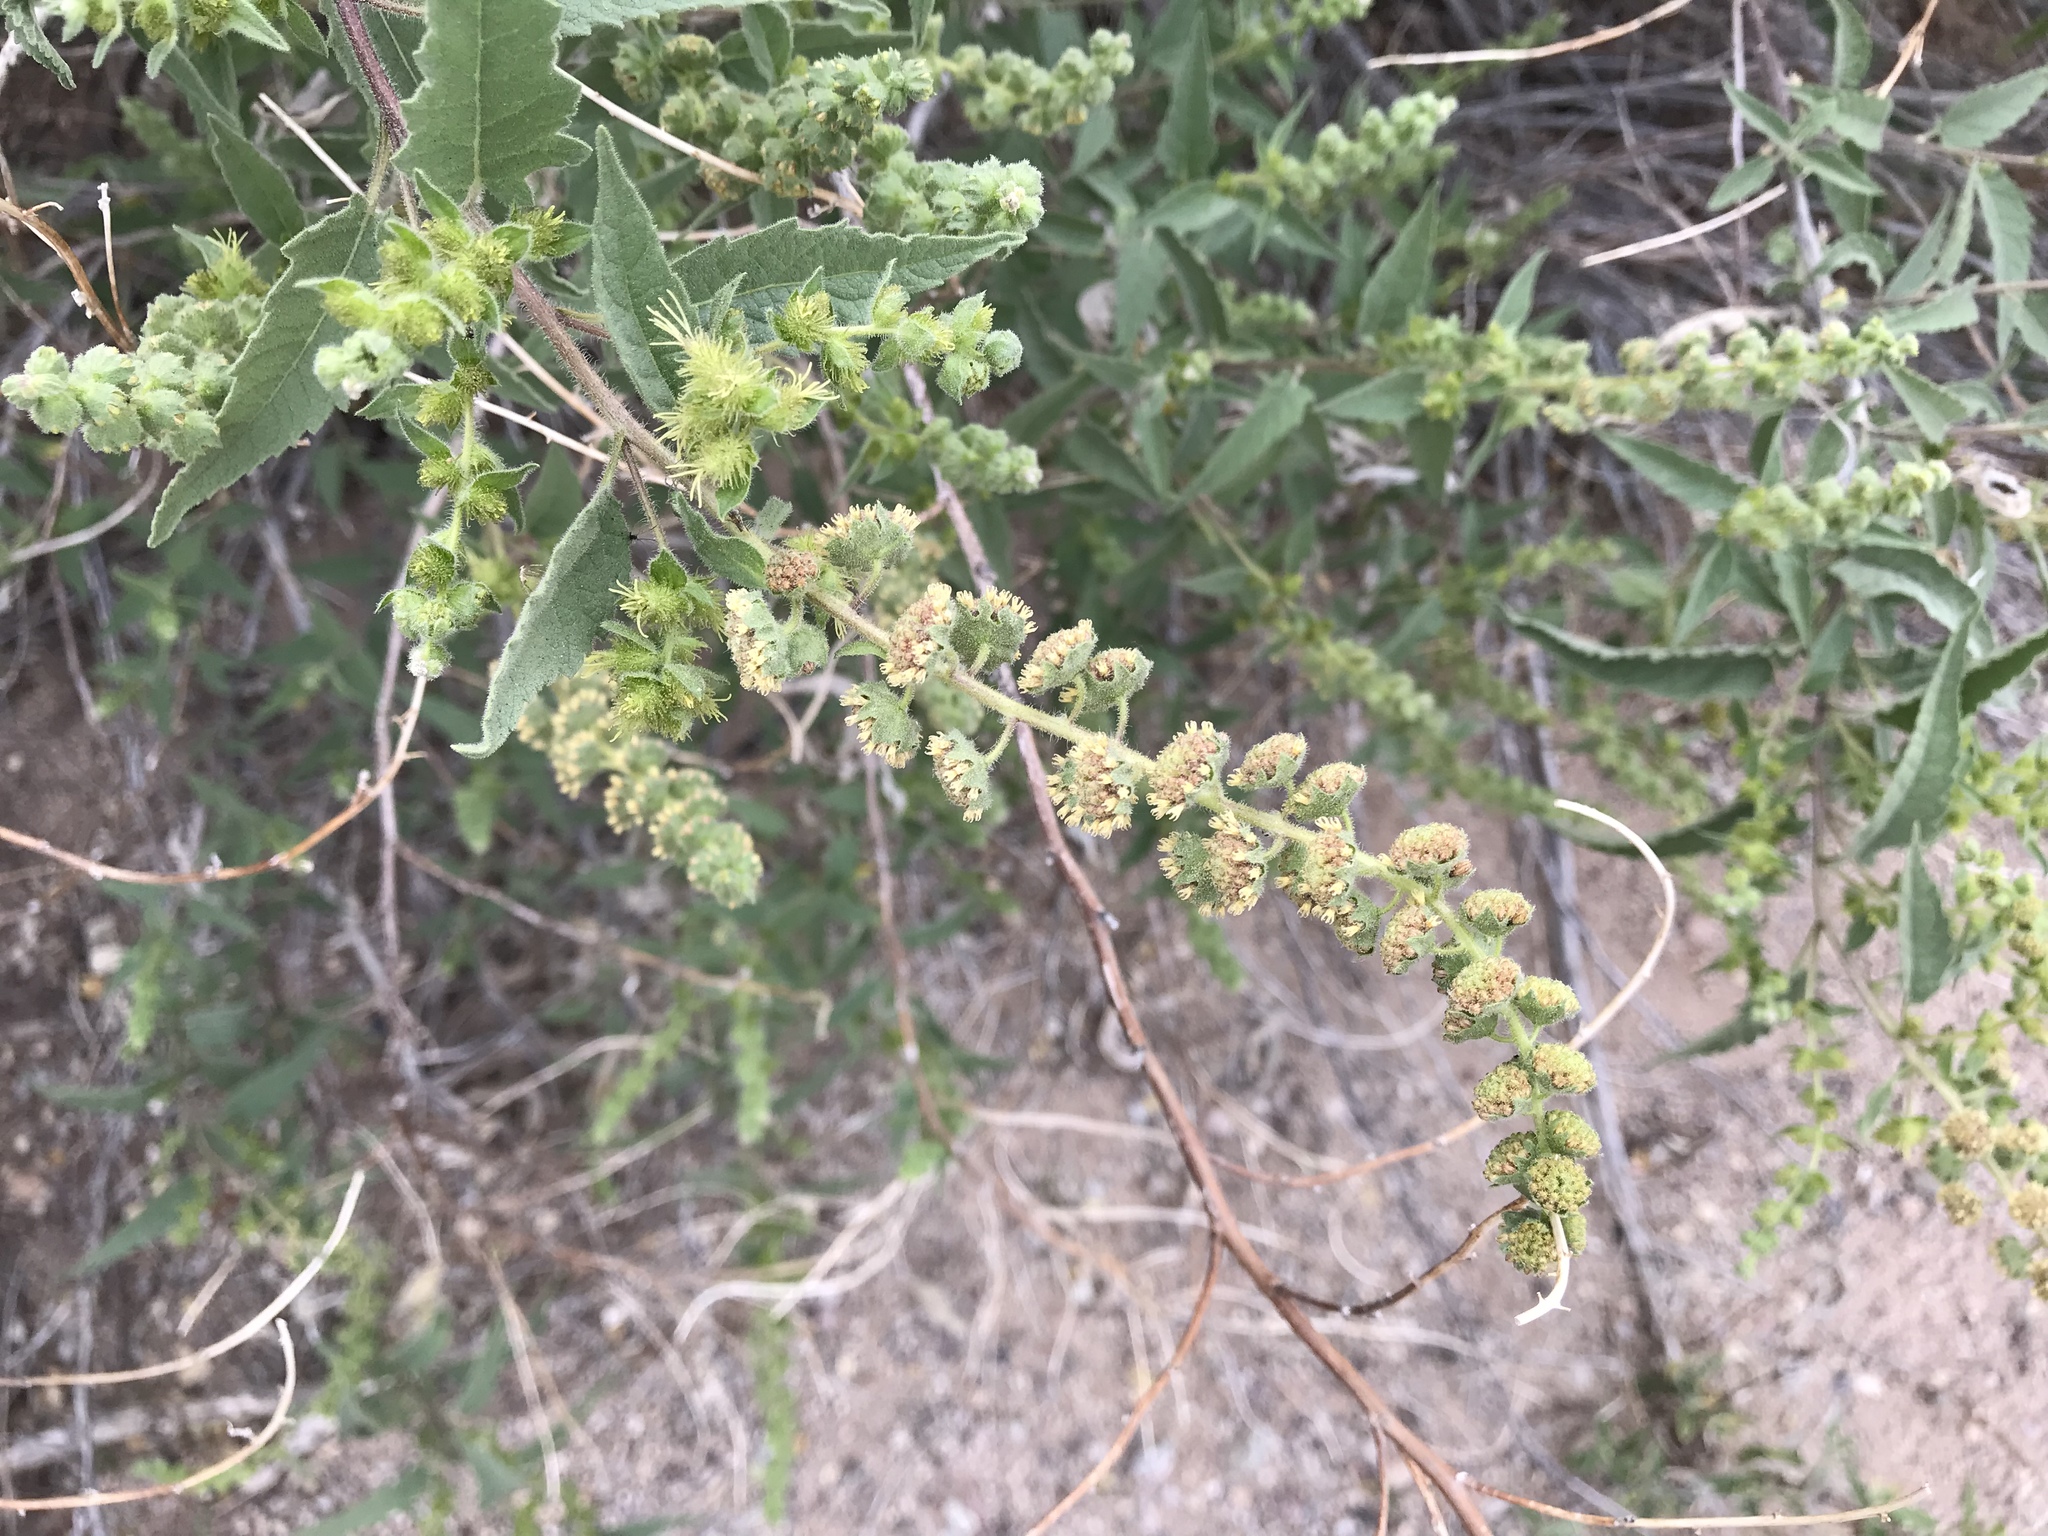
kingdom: Plantae
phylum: Tracheophyta
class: Magnoliopsida
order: Asterales
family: Asteraceae
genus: Ambrosia
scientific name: Ambrosia ambrosioides
